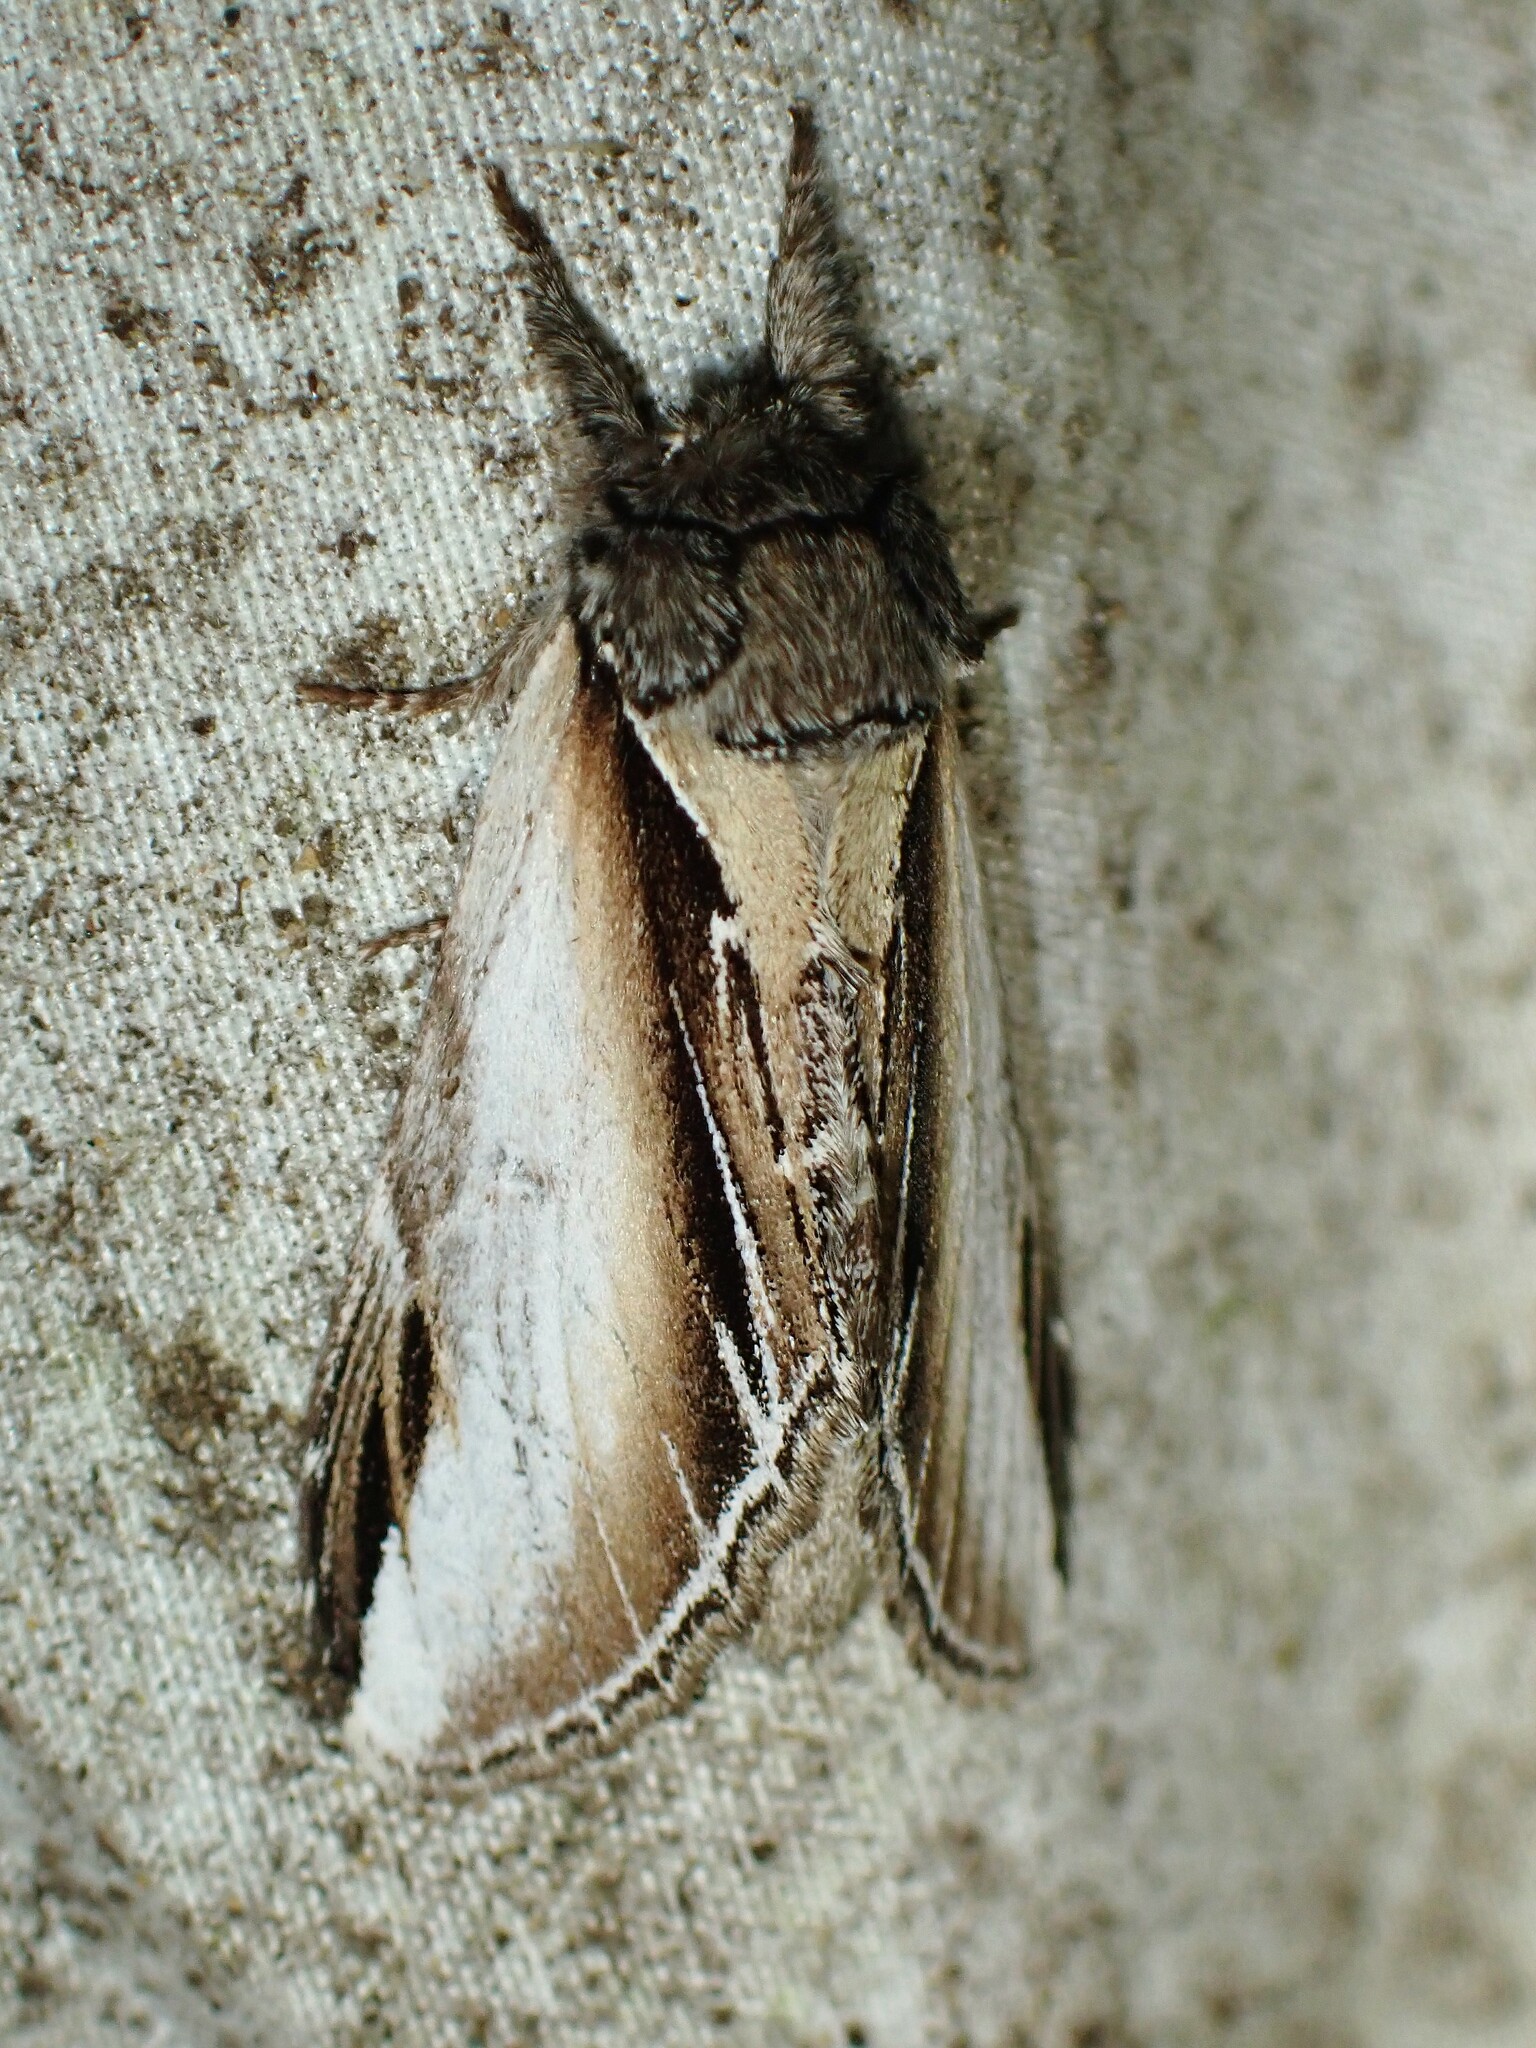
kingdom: Animalia
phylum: Arthropoda
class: Insecta
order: Lepidoptera
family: Notodontidae
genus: Pheosia
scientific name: Pheosia rimosa
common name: Black-rimmed prominent
